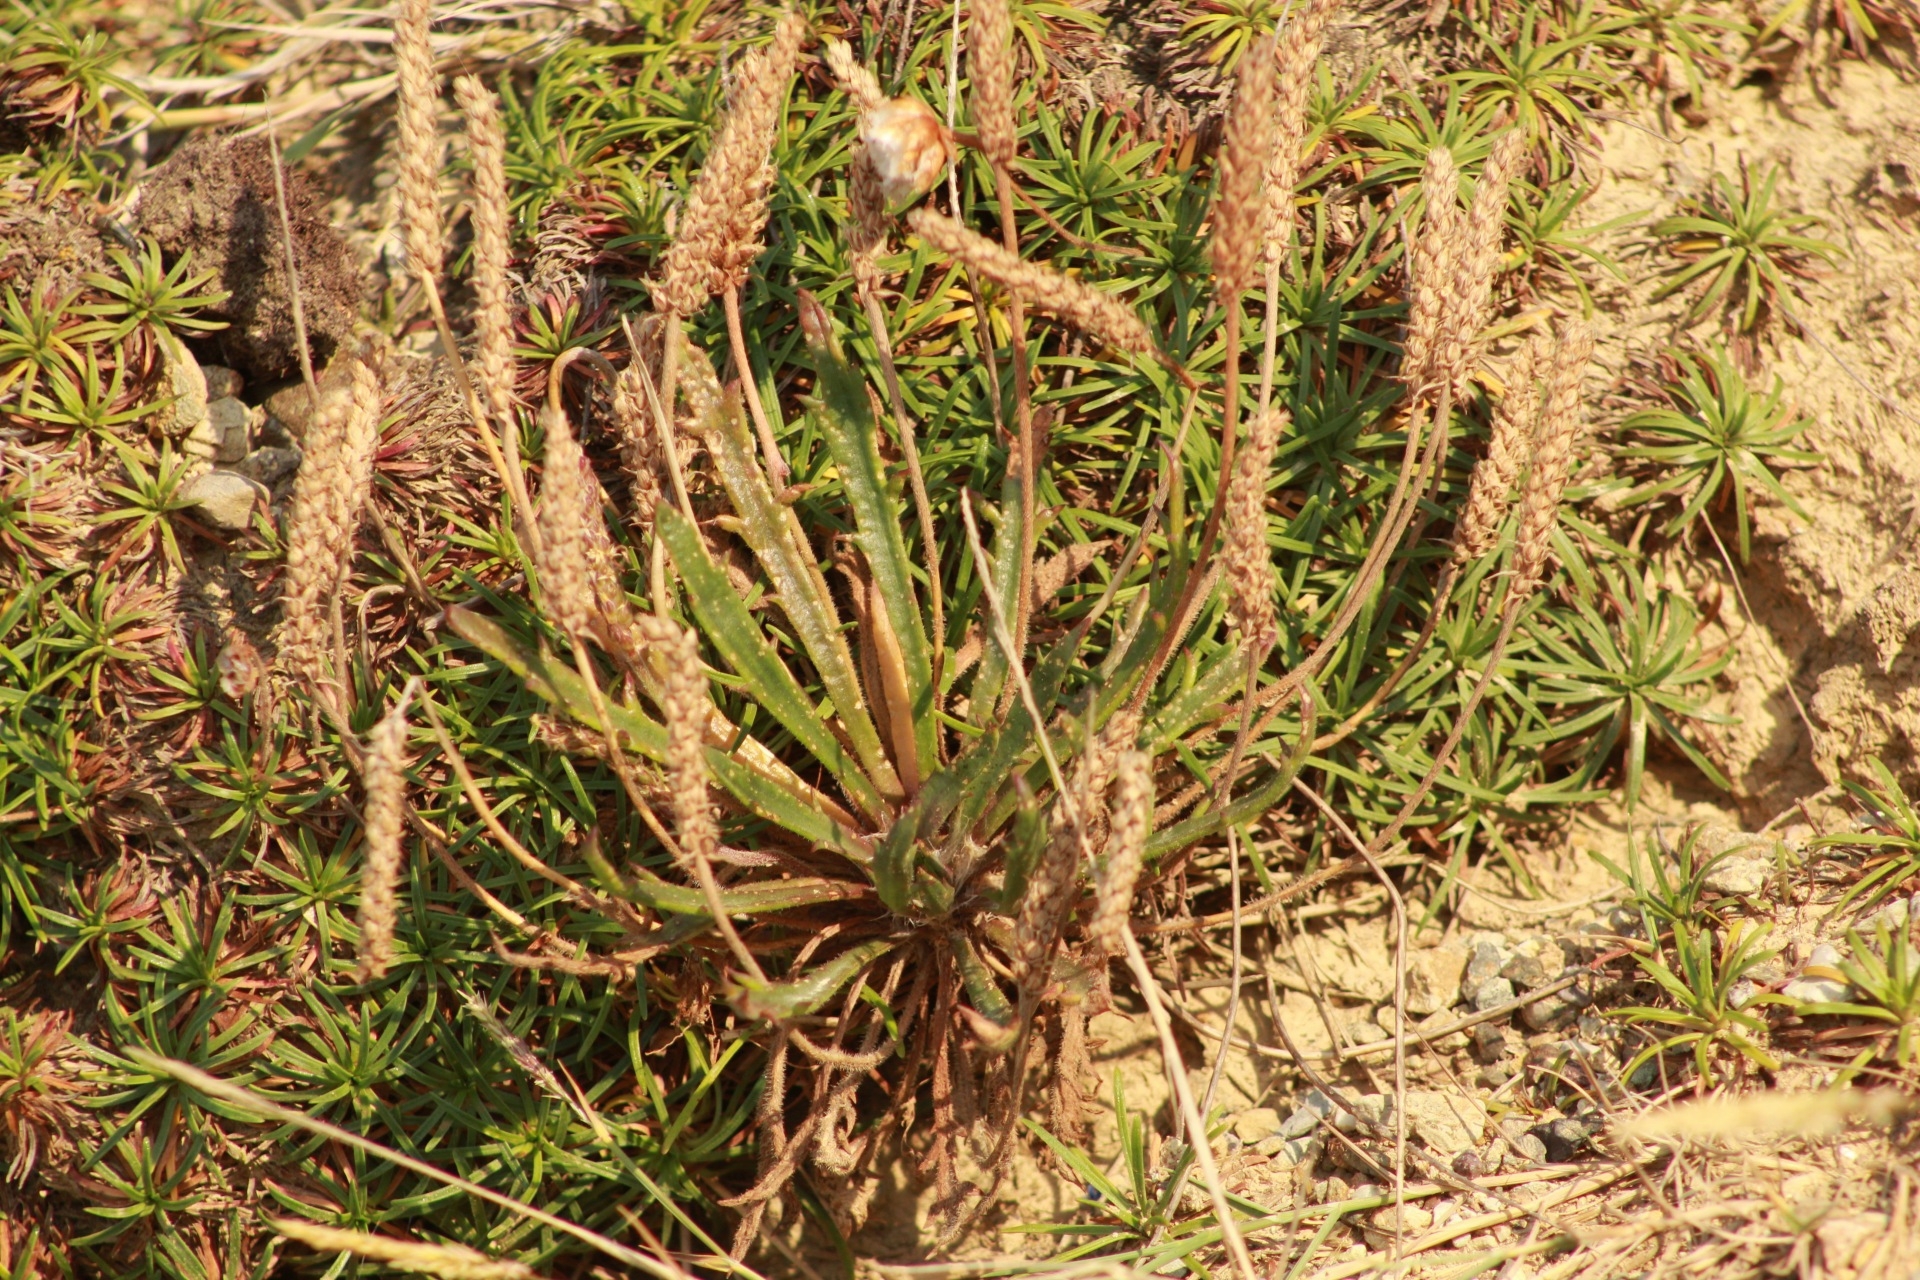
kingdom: Plantae
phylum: Tracheophyta
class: Magnoliopsida
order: Lamiales
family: Plantaginaceae
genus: Plantago
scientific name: Plantago coronopus
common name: Buck's-horn plantain
